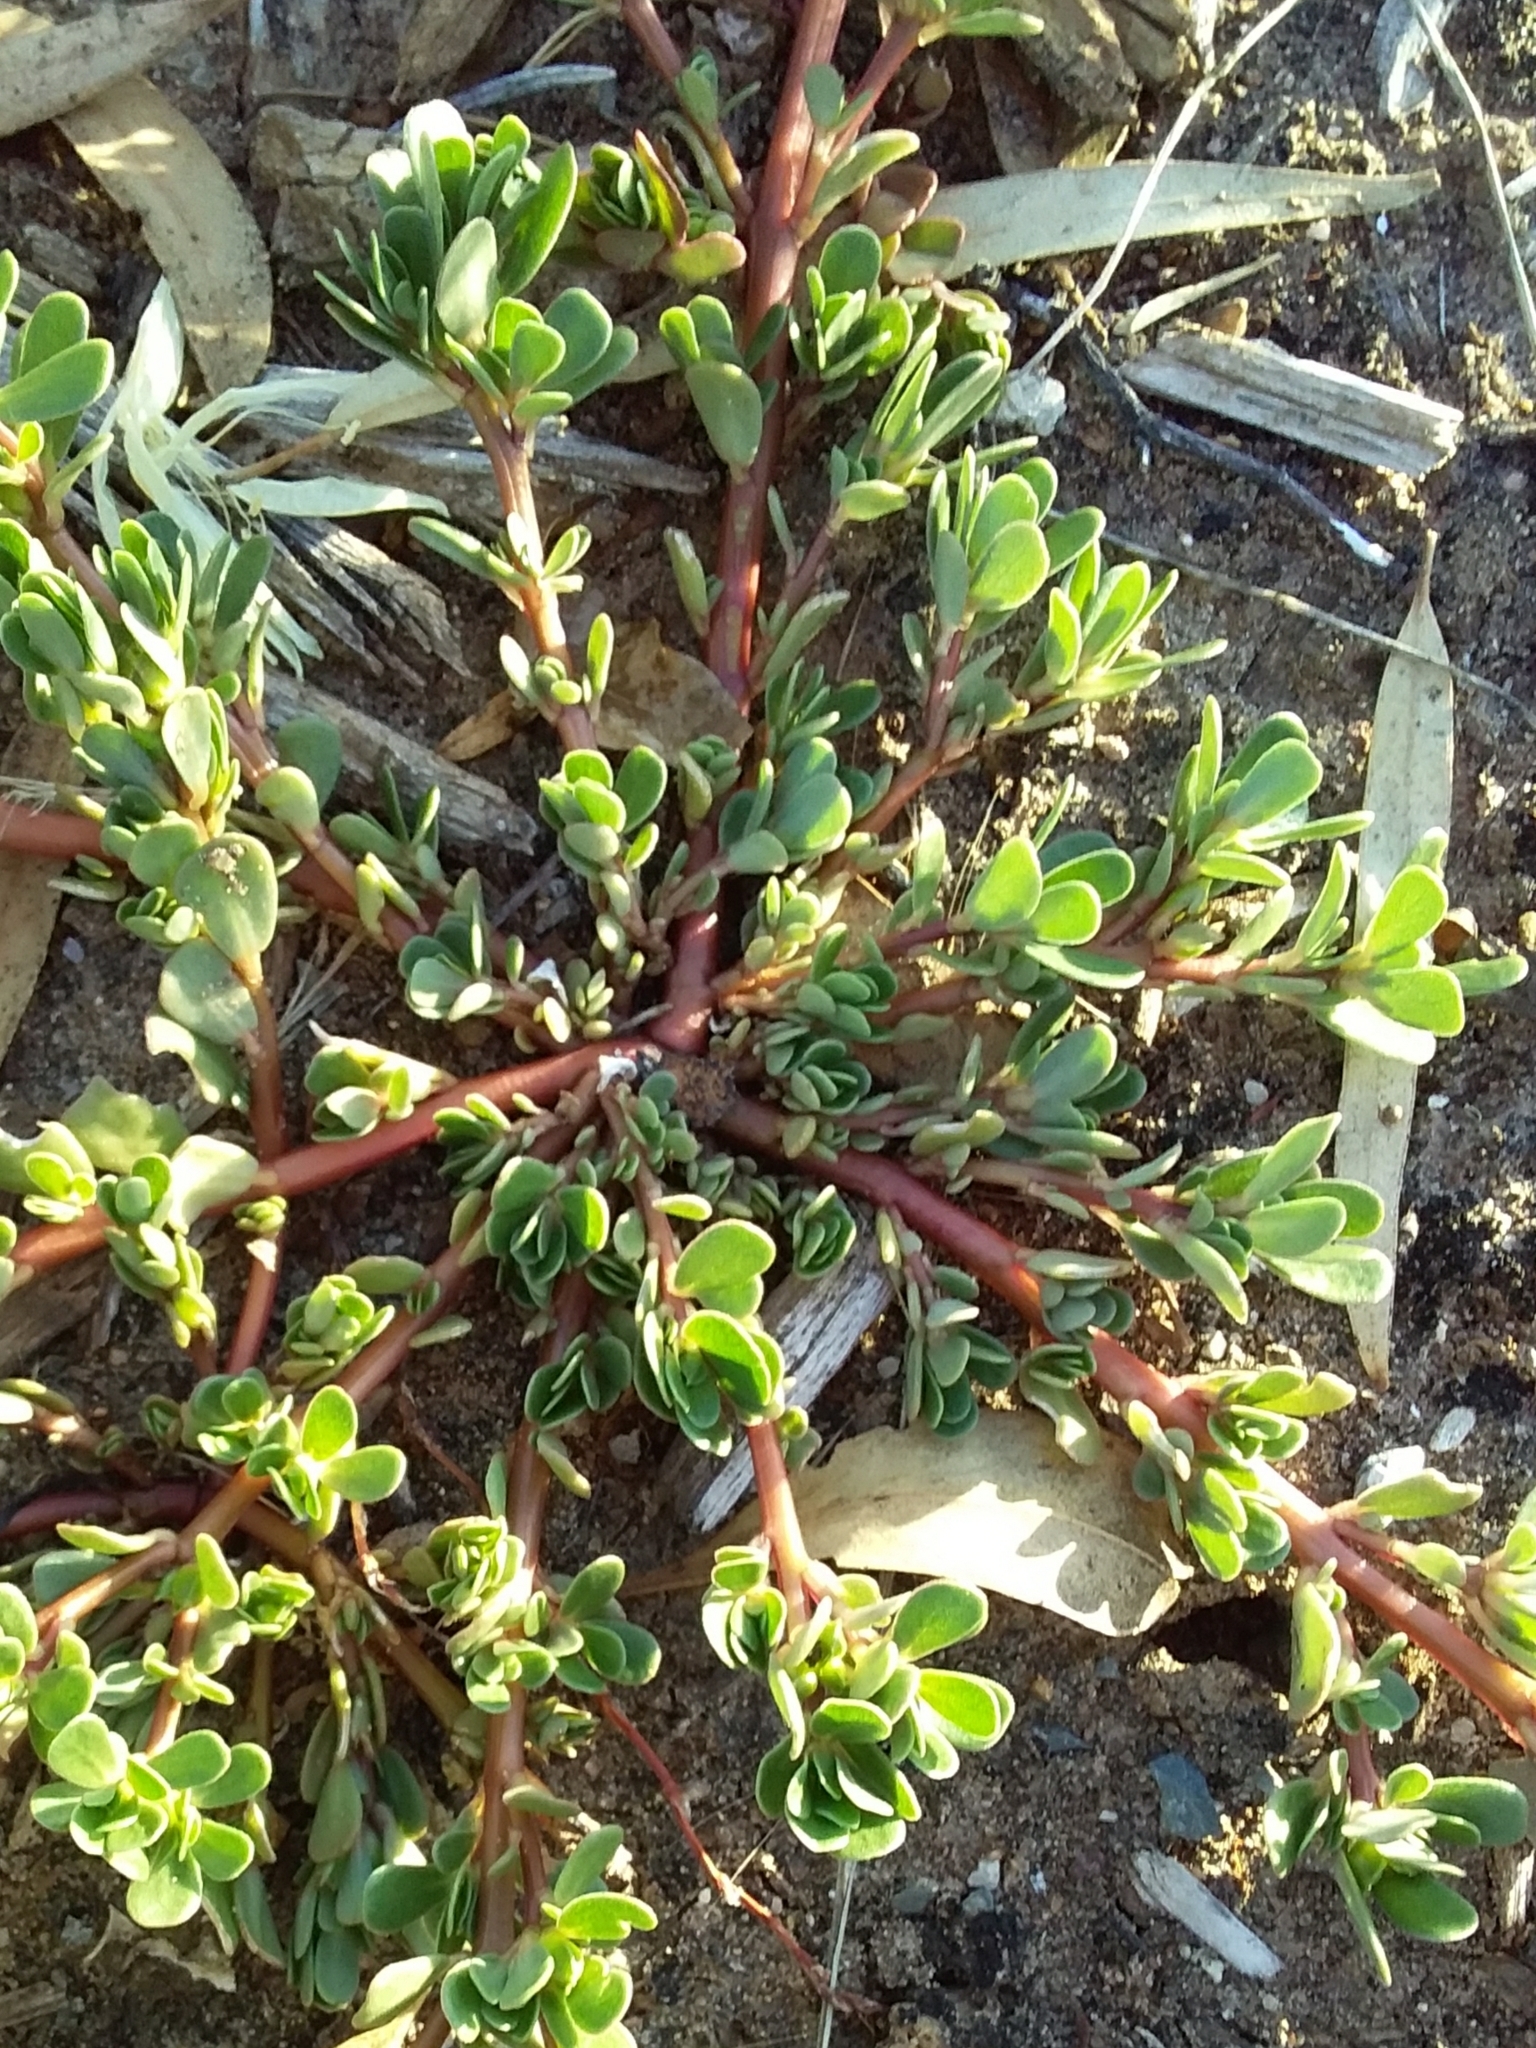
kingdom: Plantae
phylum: Tracheophyta
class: Magnoliopsida
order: Caryophyllales
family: Portulacaceae
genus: Portulaca
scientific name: Portulaca oleracea
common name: Common purslane
